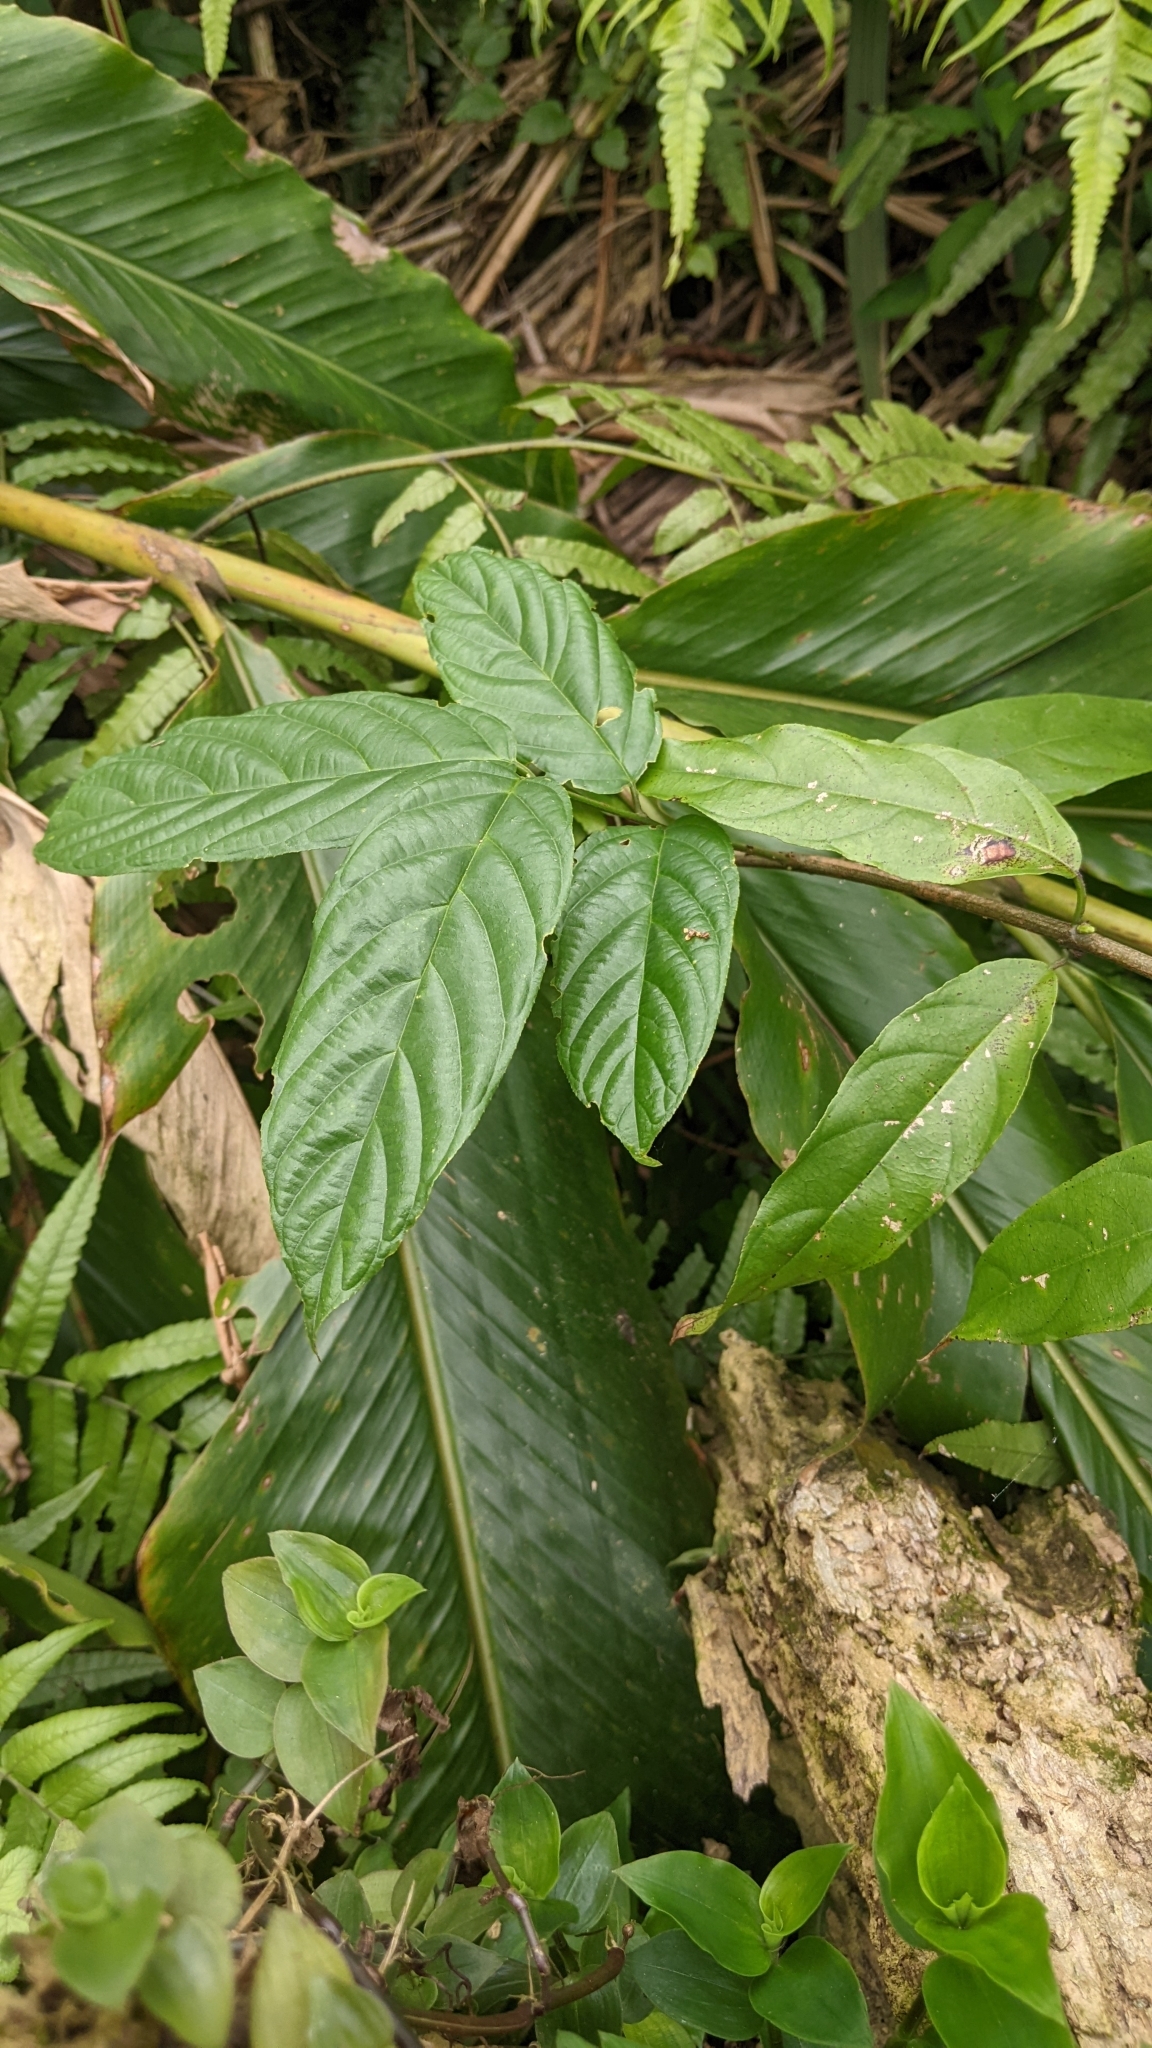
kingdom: Plantae
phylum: Tracheophyta
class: Magnoliopsida
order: Rosales
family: Rhamnaceae
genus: Sageretia
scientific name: Sageretia randaiensis
